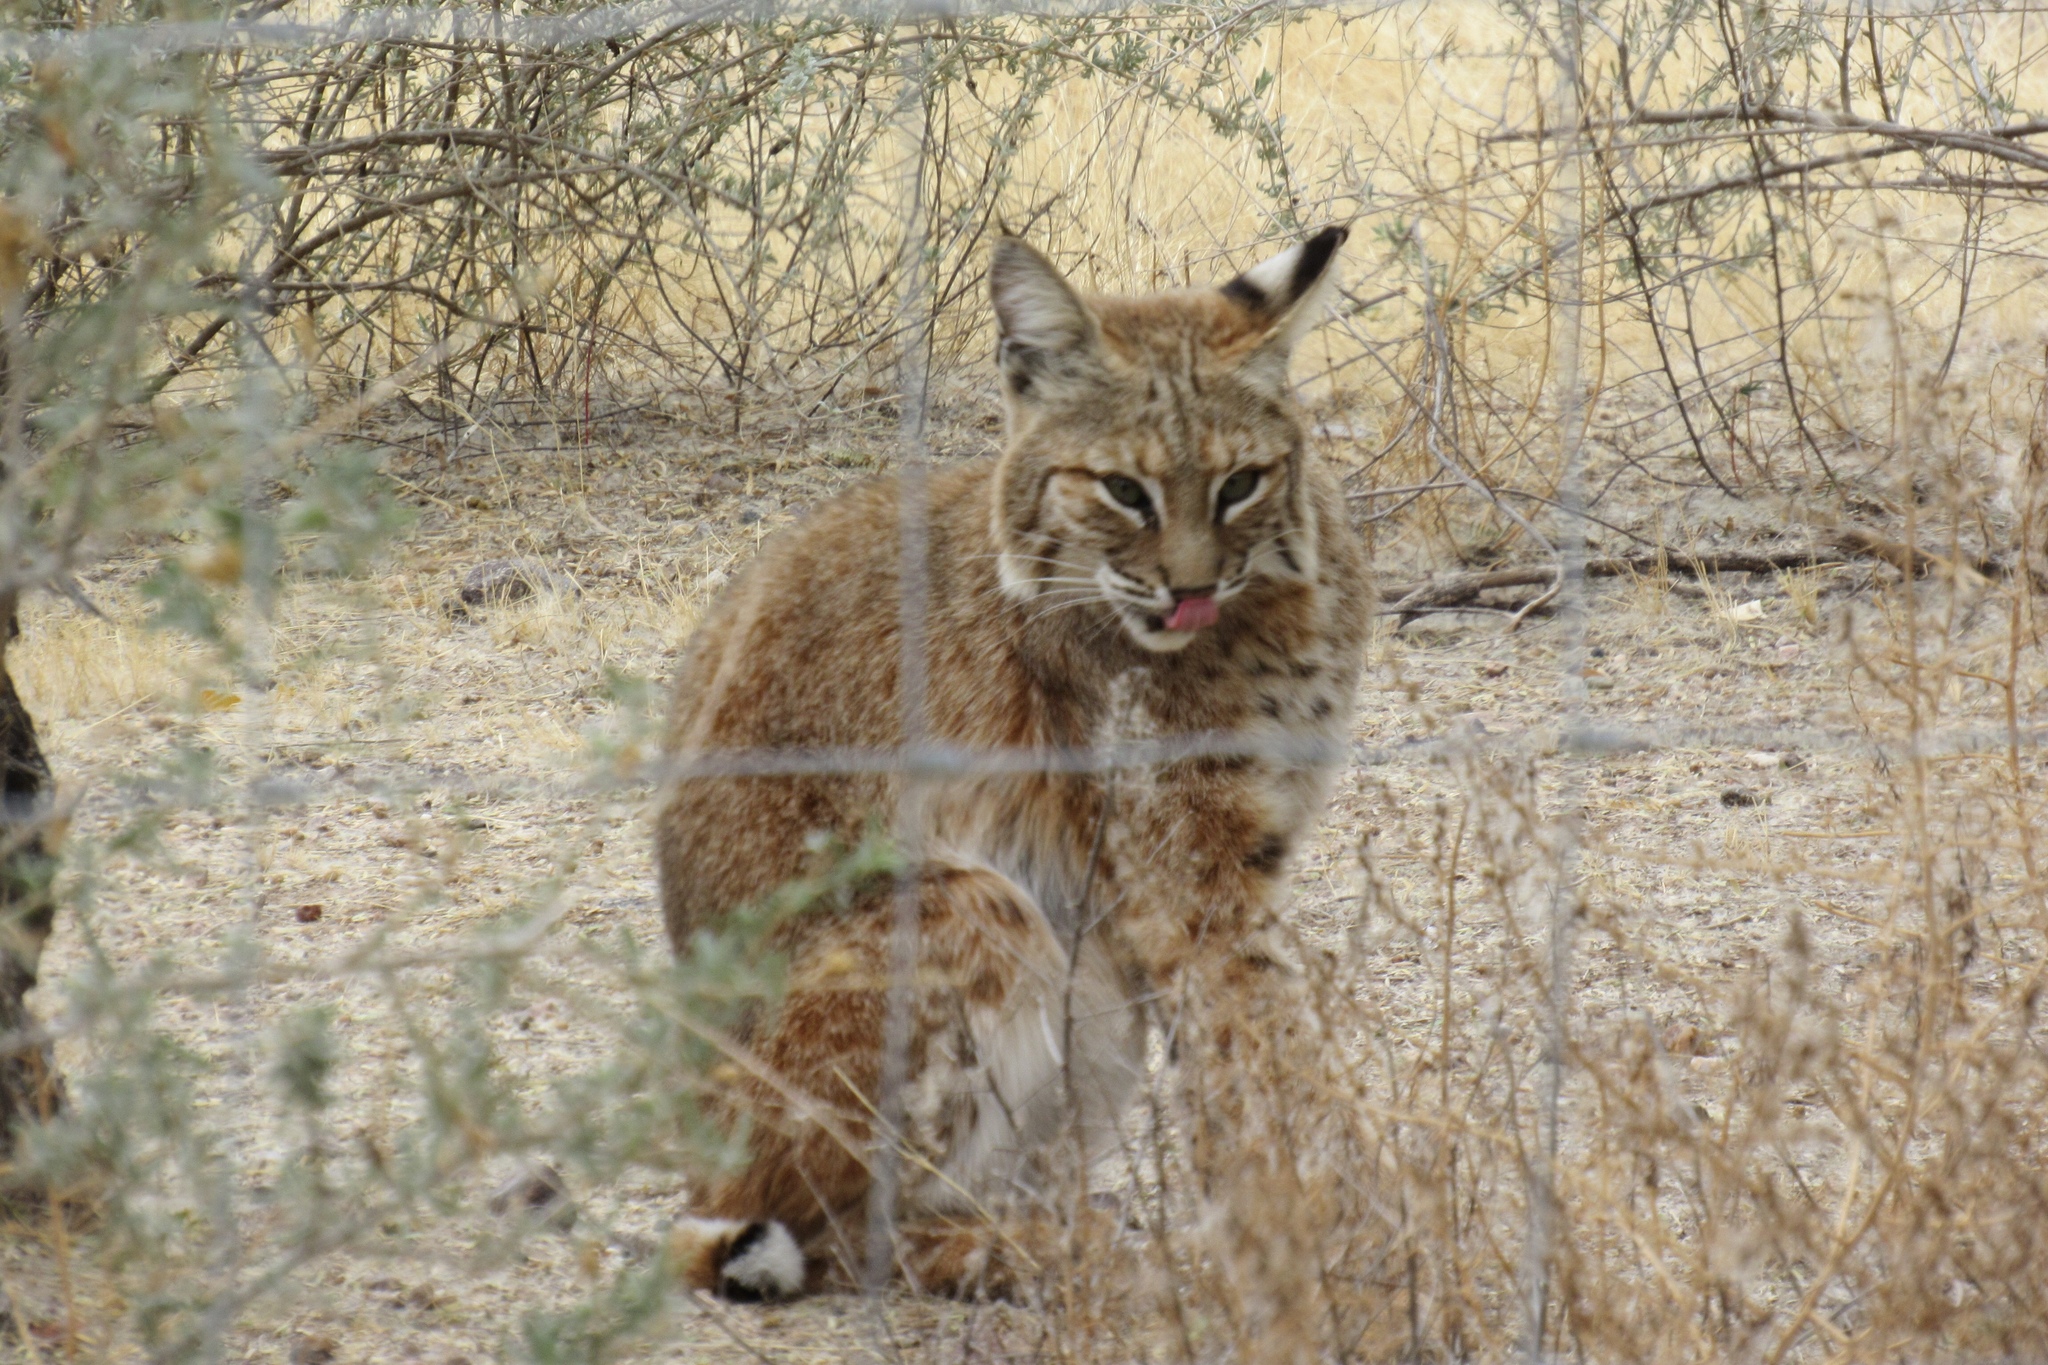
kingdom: Animalia
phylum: Chordata
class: Mammalia
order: Carnivora
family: Felidae
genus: Lynx
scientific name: Lynx rufus
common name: Bobcat
